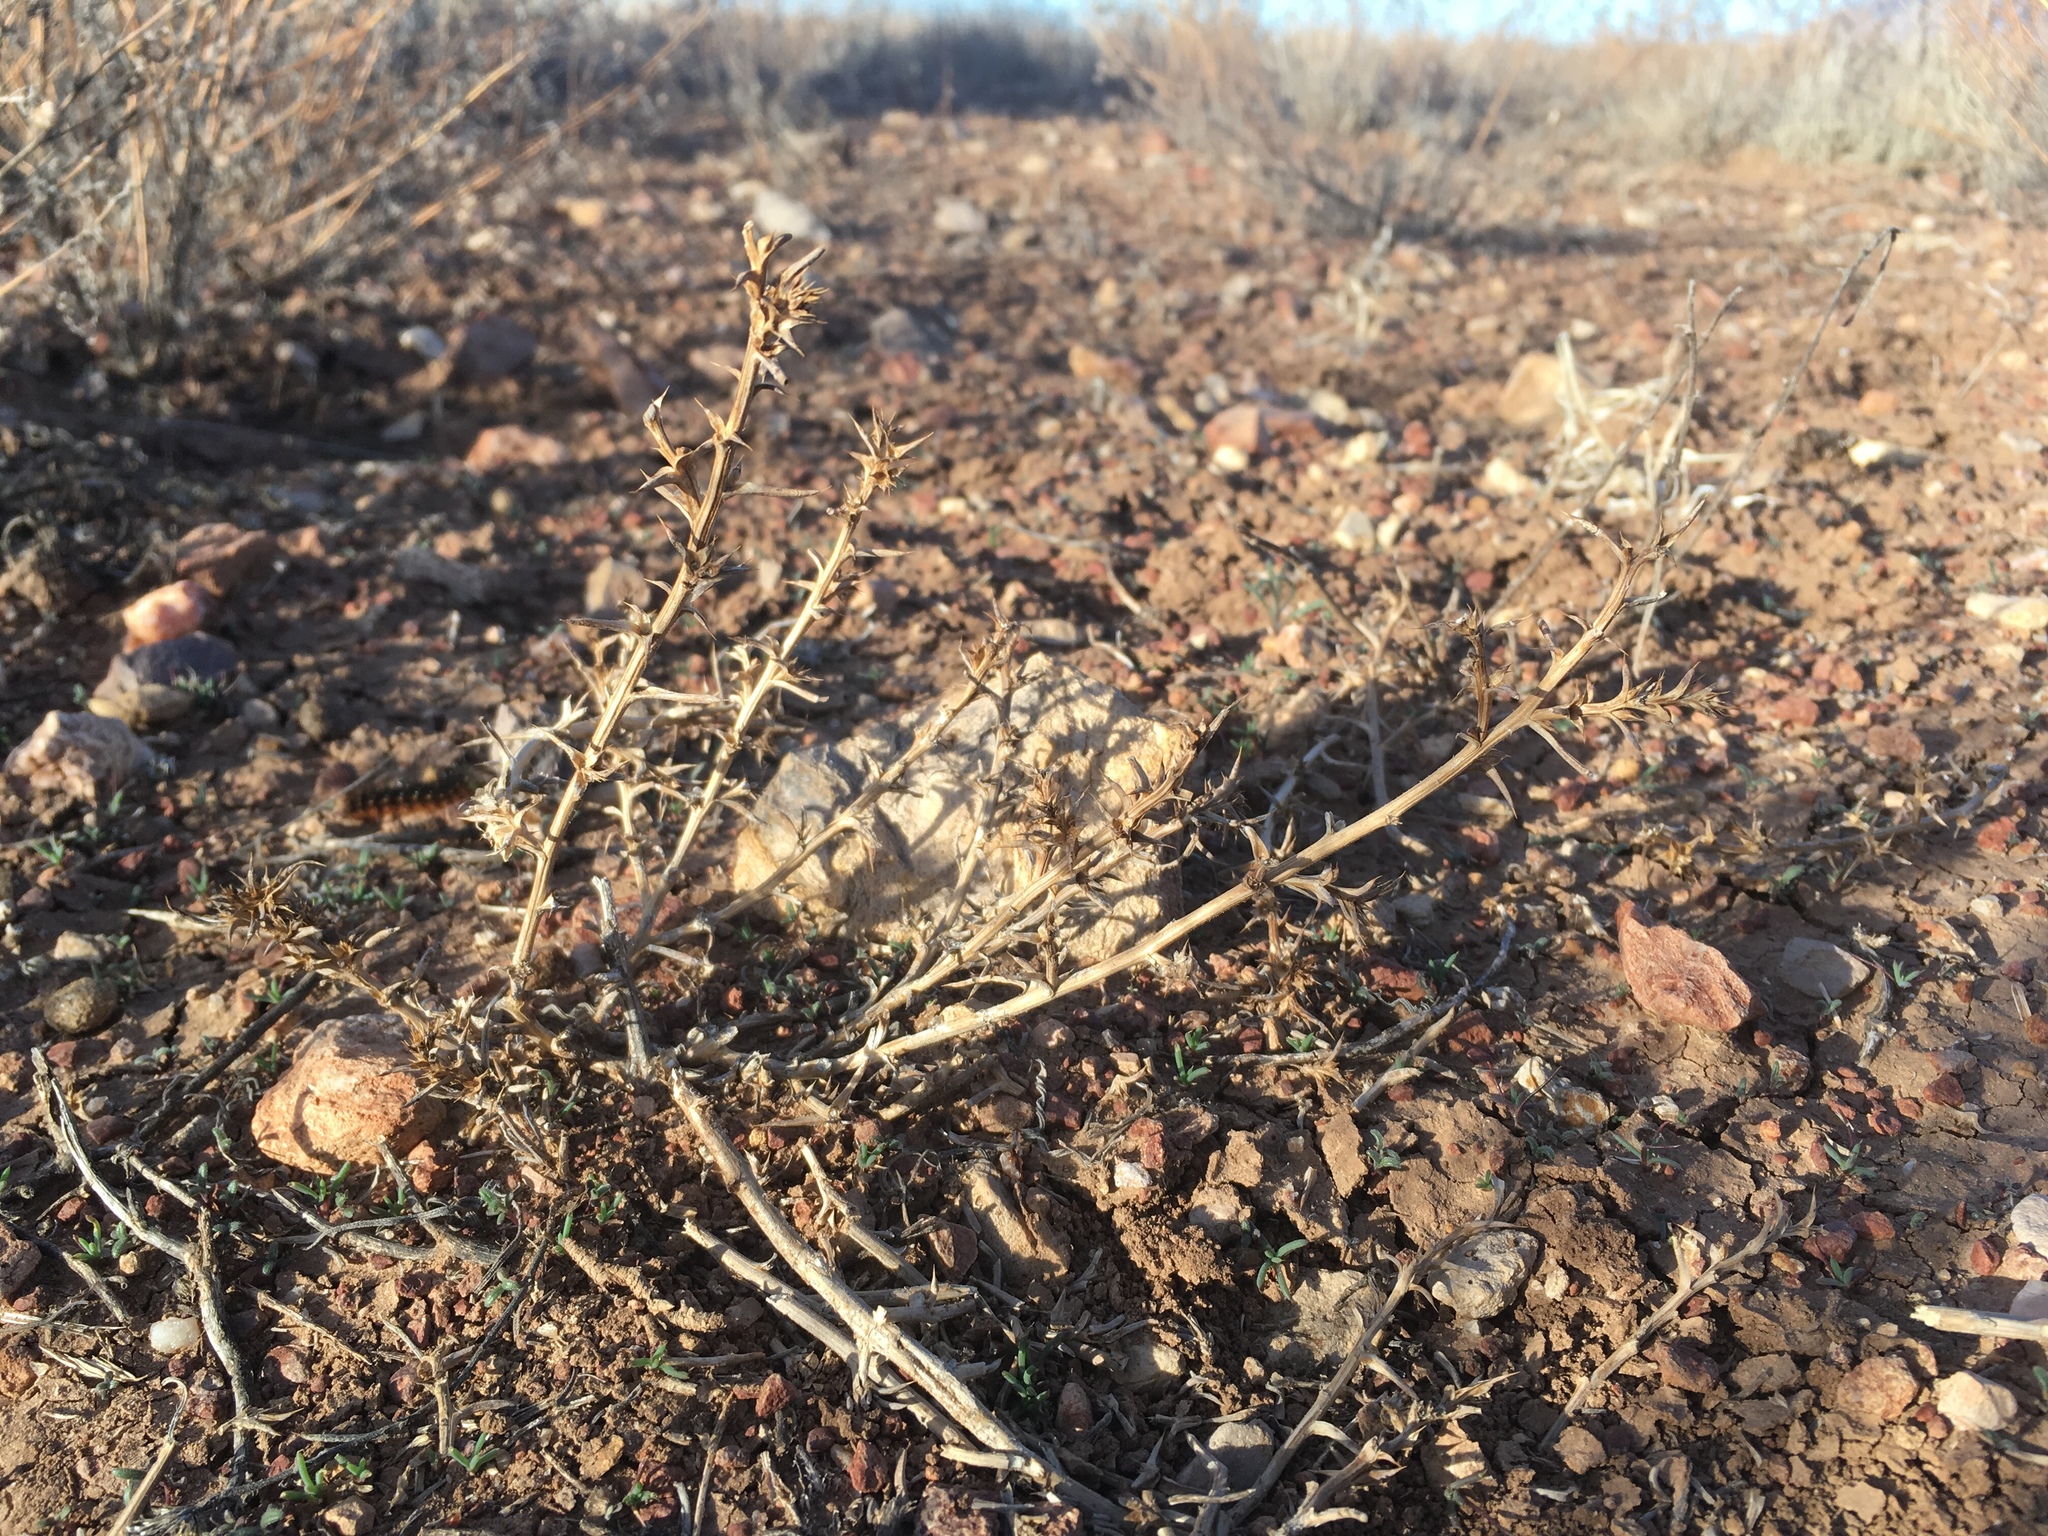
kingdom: Plantae
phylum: Tracheophyta
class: Magnoliopsida
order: Caryophyllales
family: Amaranthaceae
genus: Salsola
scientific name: Salsola tragus
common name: Prickly russian thistle
